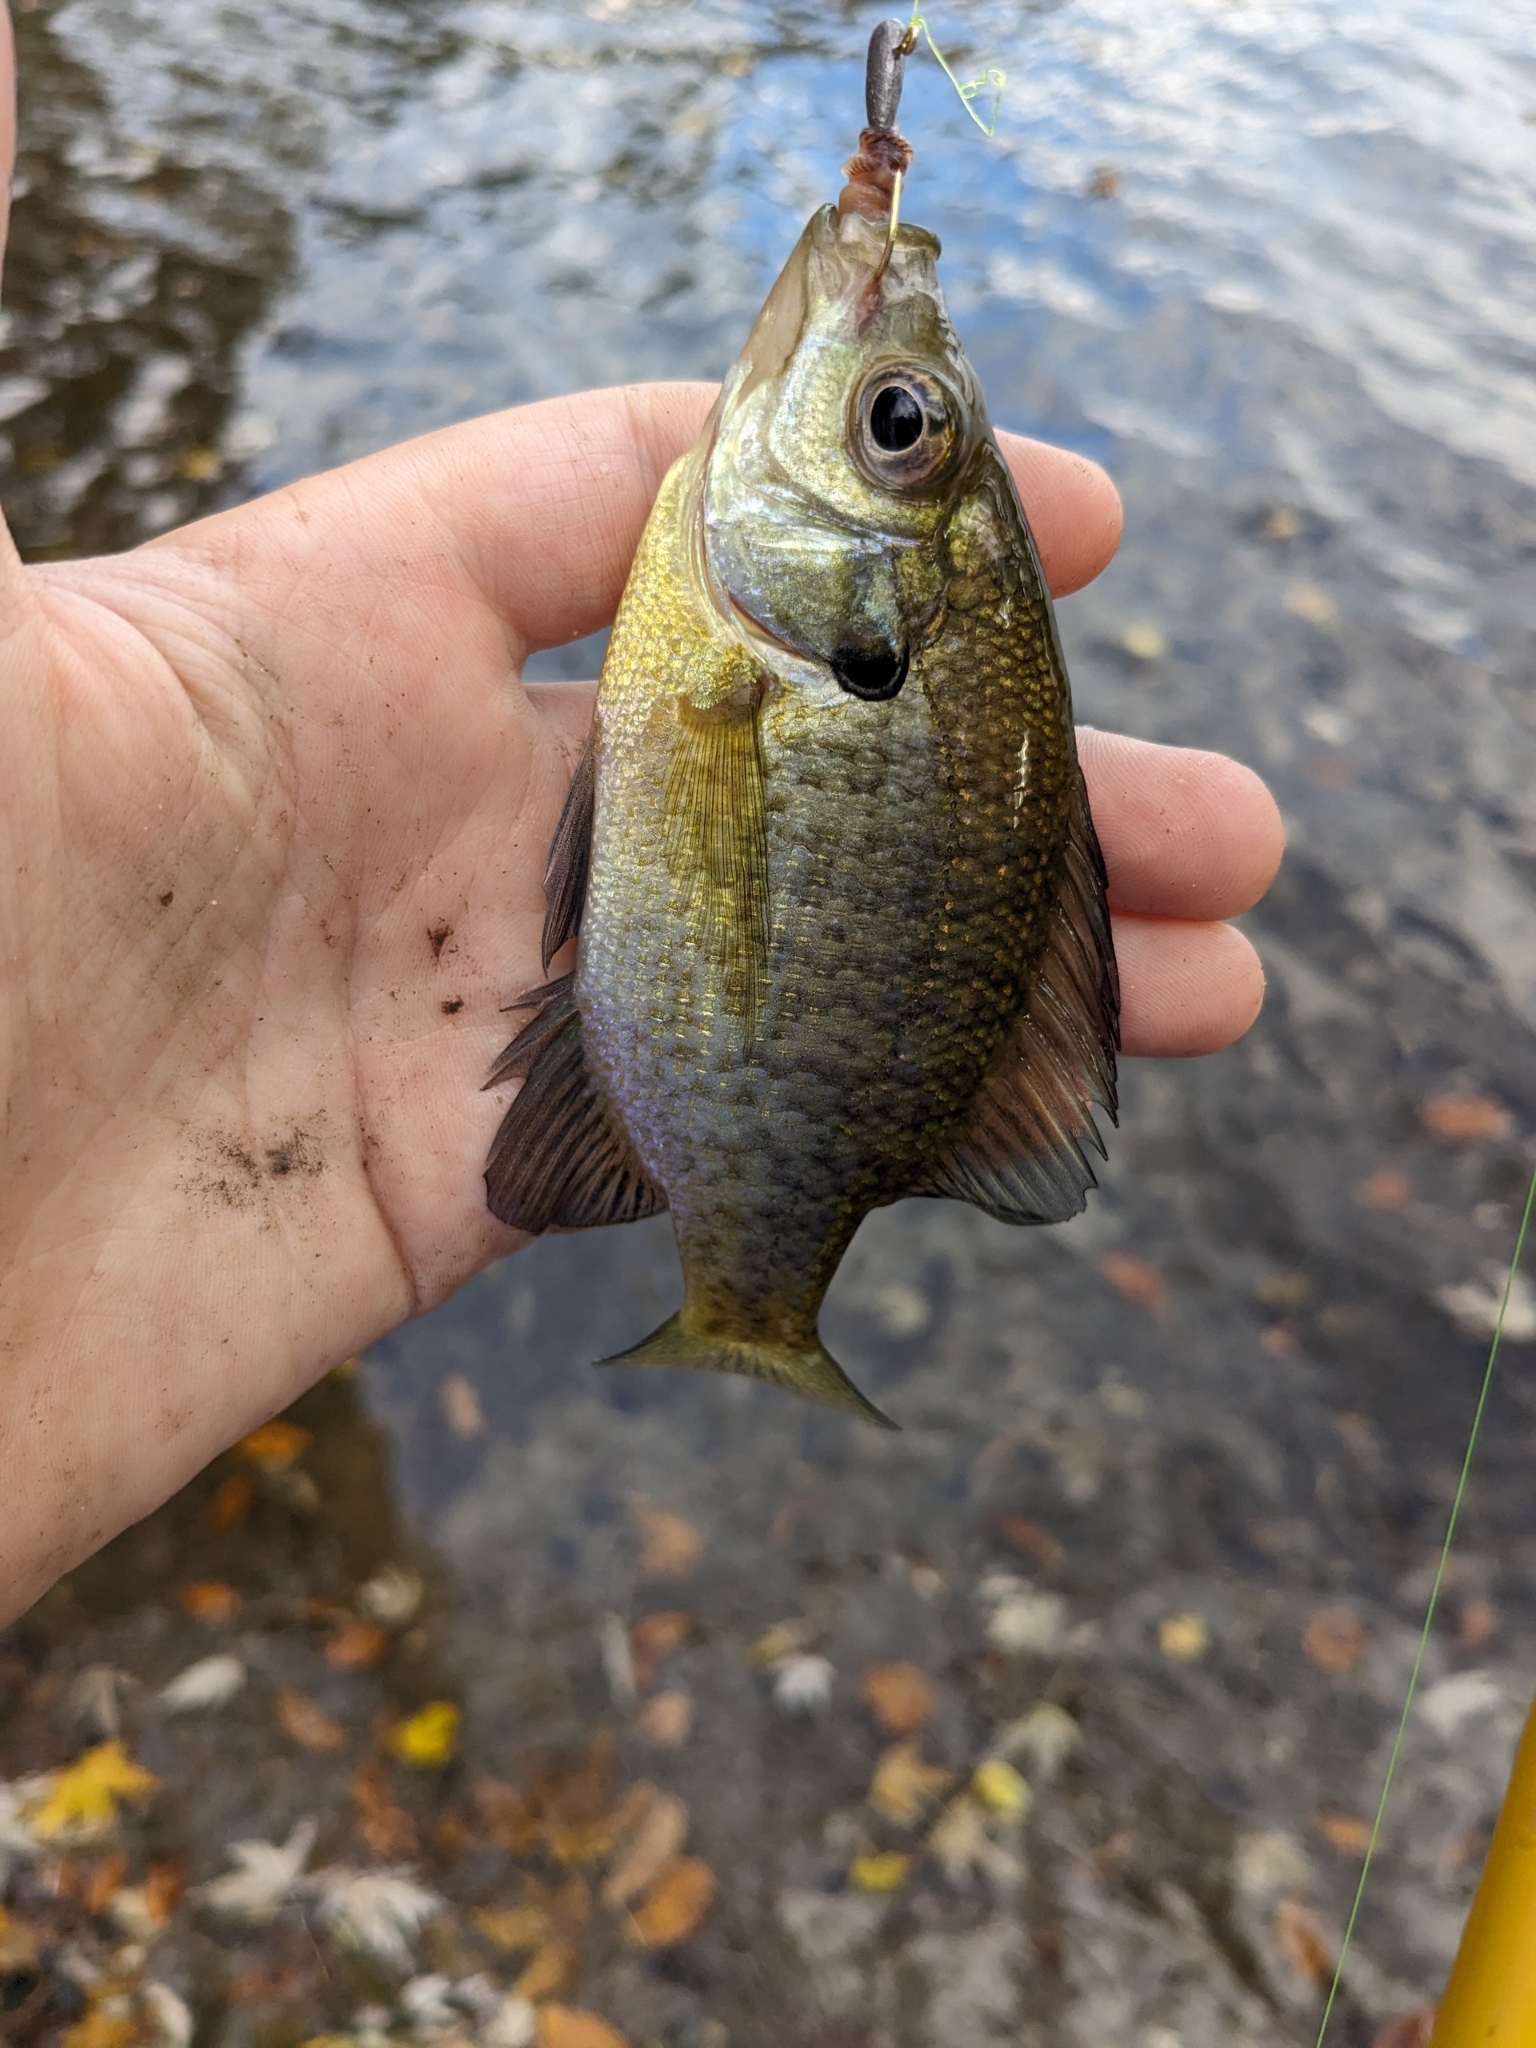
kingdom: Animalia
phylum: Chordata
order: Perciformes
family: Centrarchidae
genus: Lepomis
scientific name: Lepomis macrochirus
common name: Bluegill
